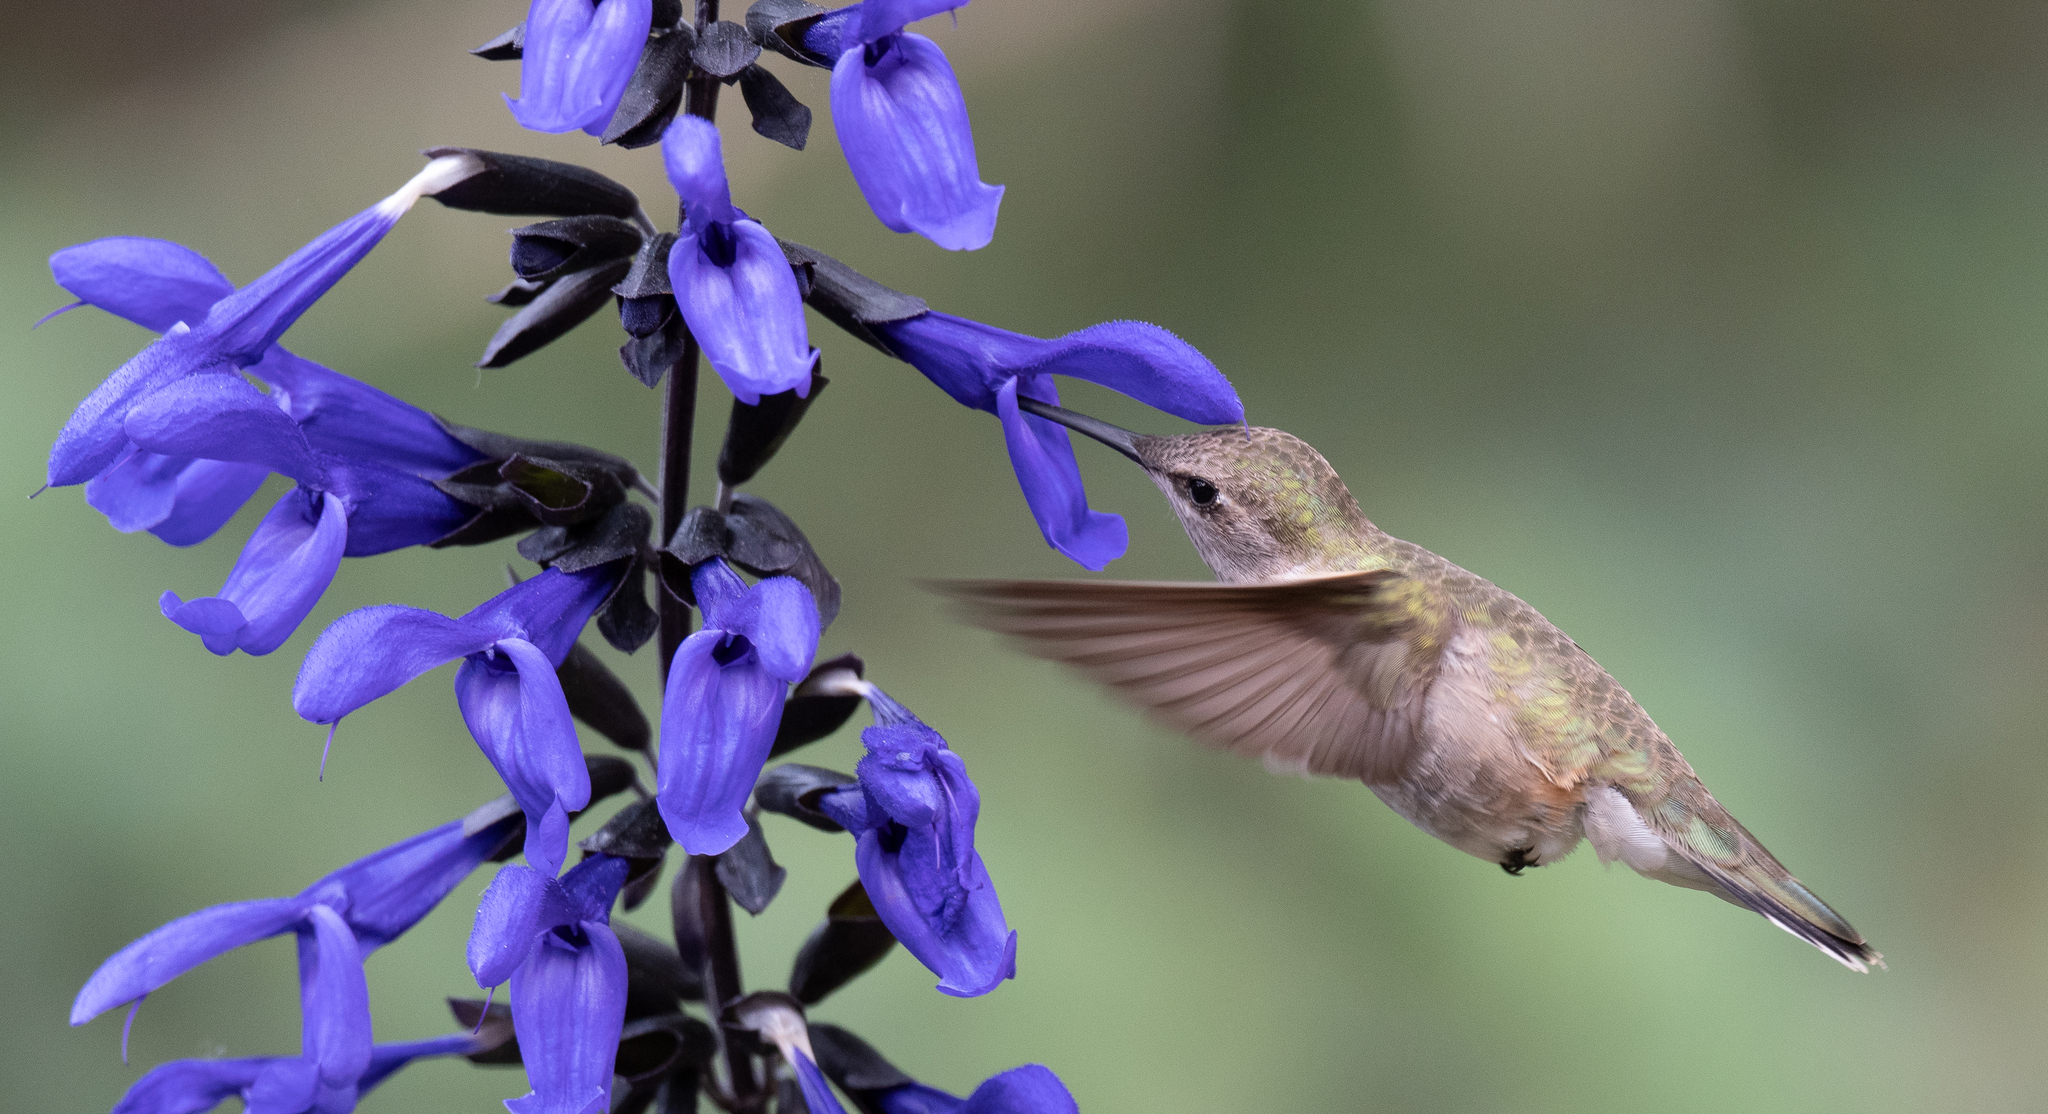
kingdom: Animalia
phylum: Chordata
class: Aves
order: Apodiformes
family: Trochilidae
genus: Archilochus
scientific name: Archilochus alexandri
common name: Black-chinned hummingbird
